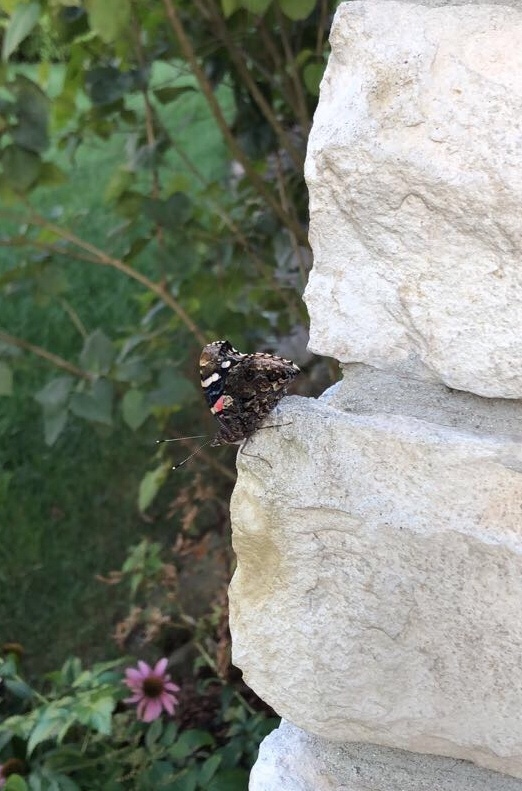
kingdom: Animalia
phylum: Arthropoda
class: Insecta
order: Lepidoptera
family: Nymphalidae
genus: Vanessa
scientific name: Vanessa atalanta
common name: Red admiral
